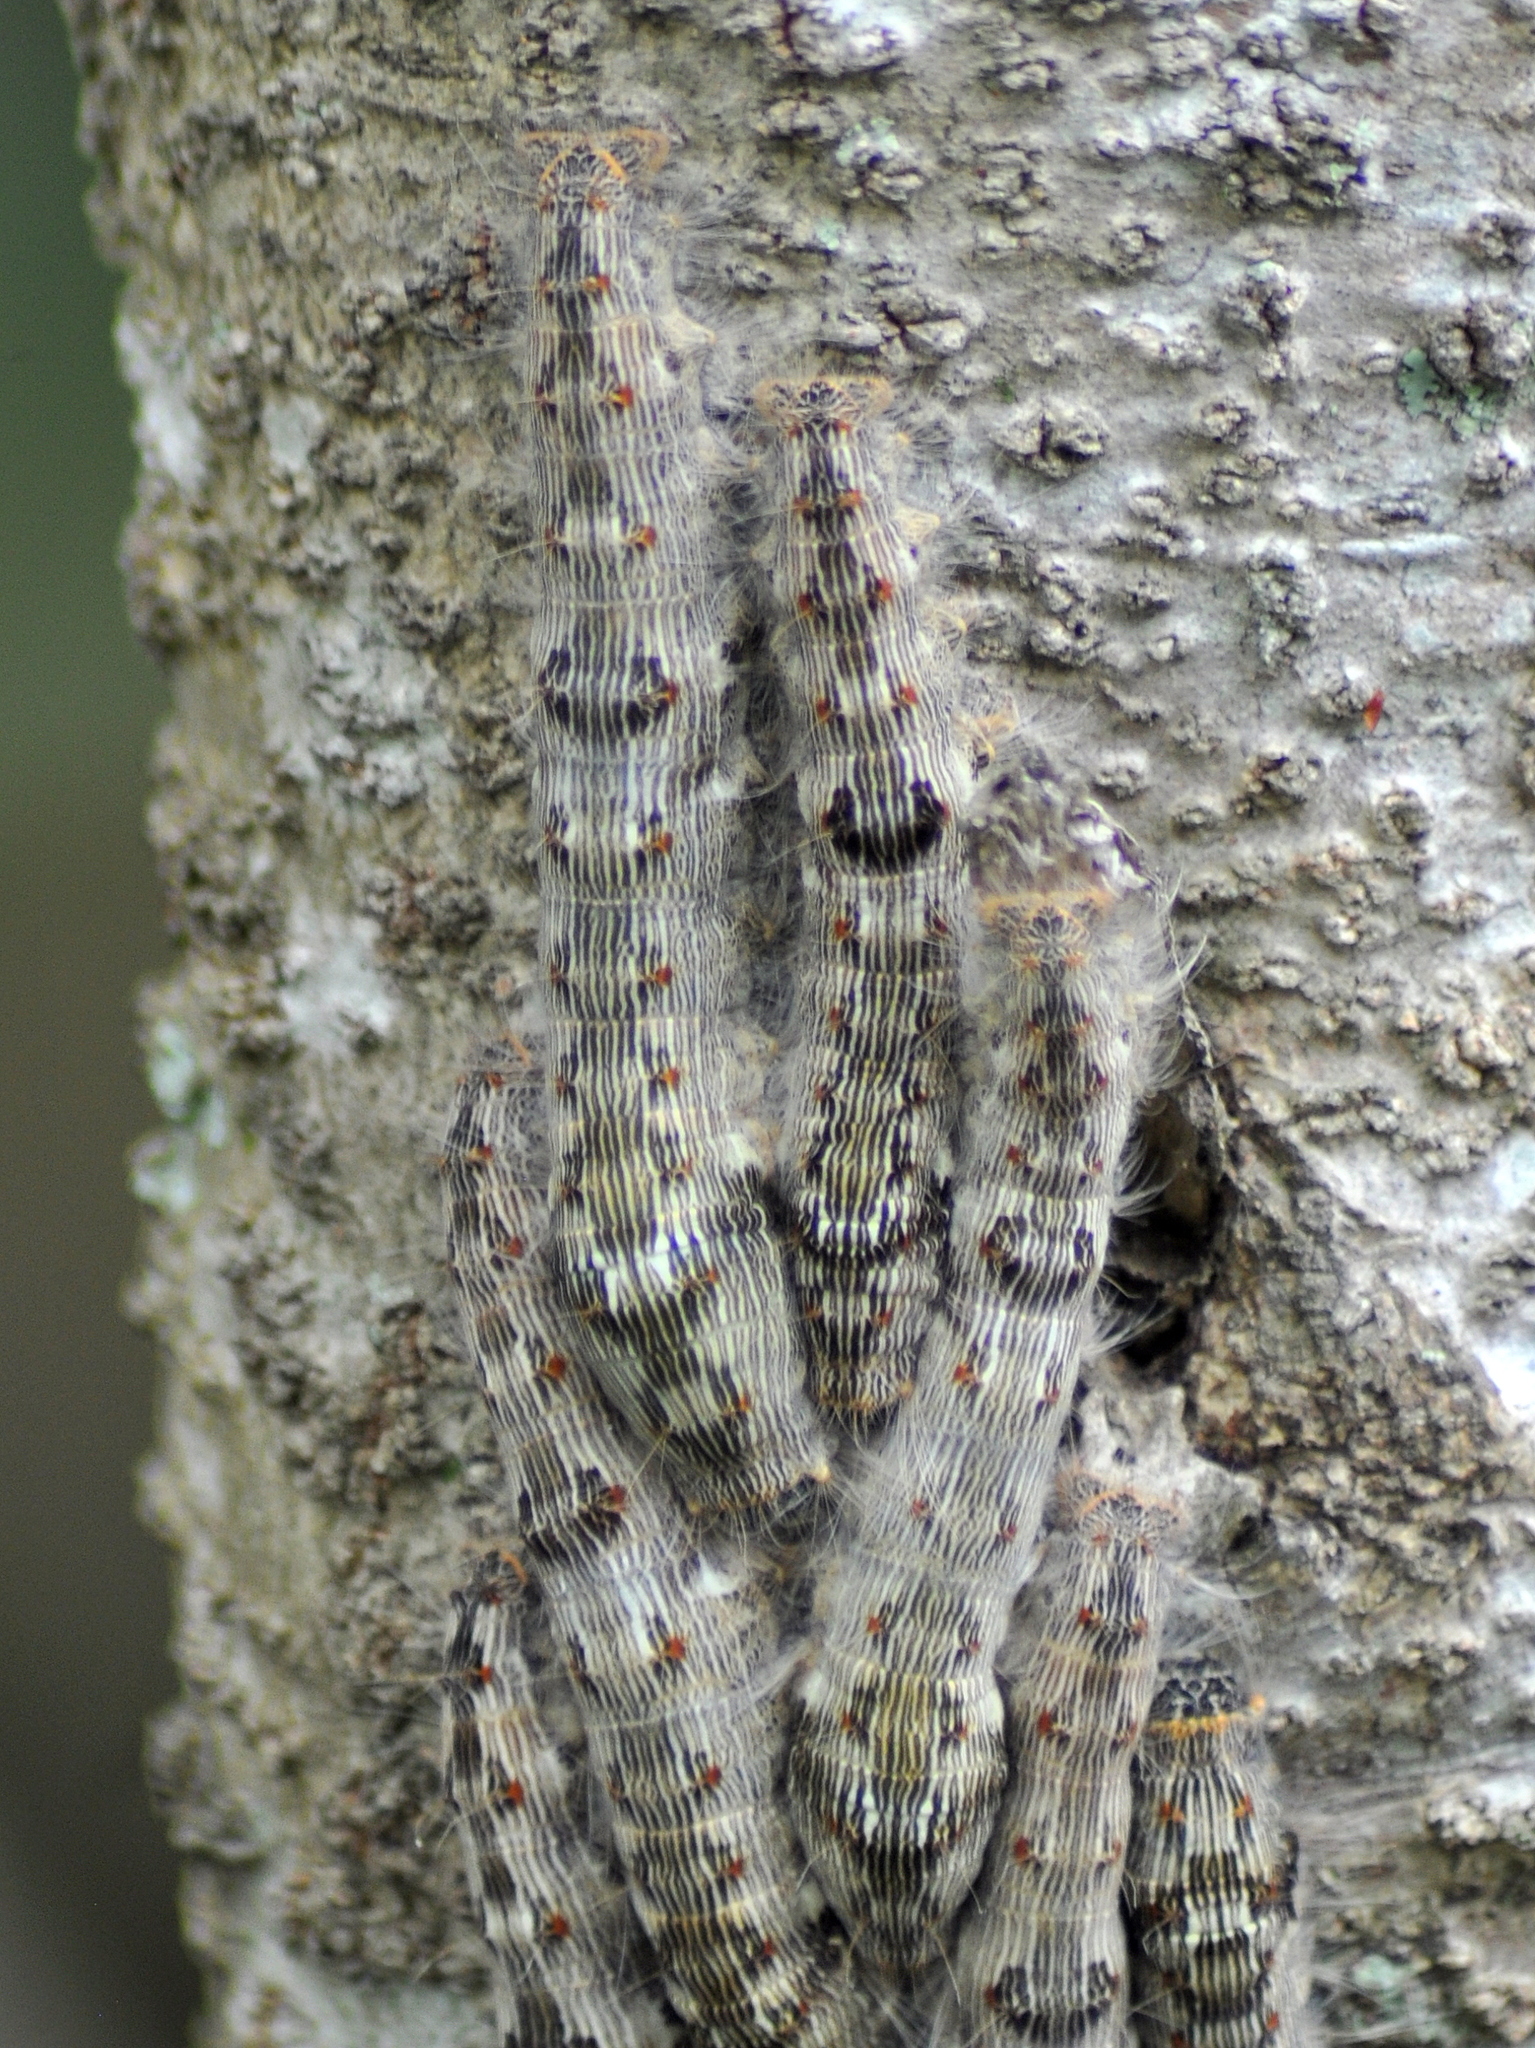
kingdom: Animalia
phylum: Arthropoda
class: Insecta
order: Lepidoptera
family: Lasiocampidae
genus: Artace
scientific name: Artace itatiaya
